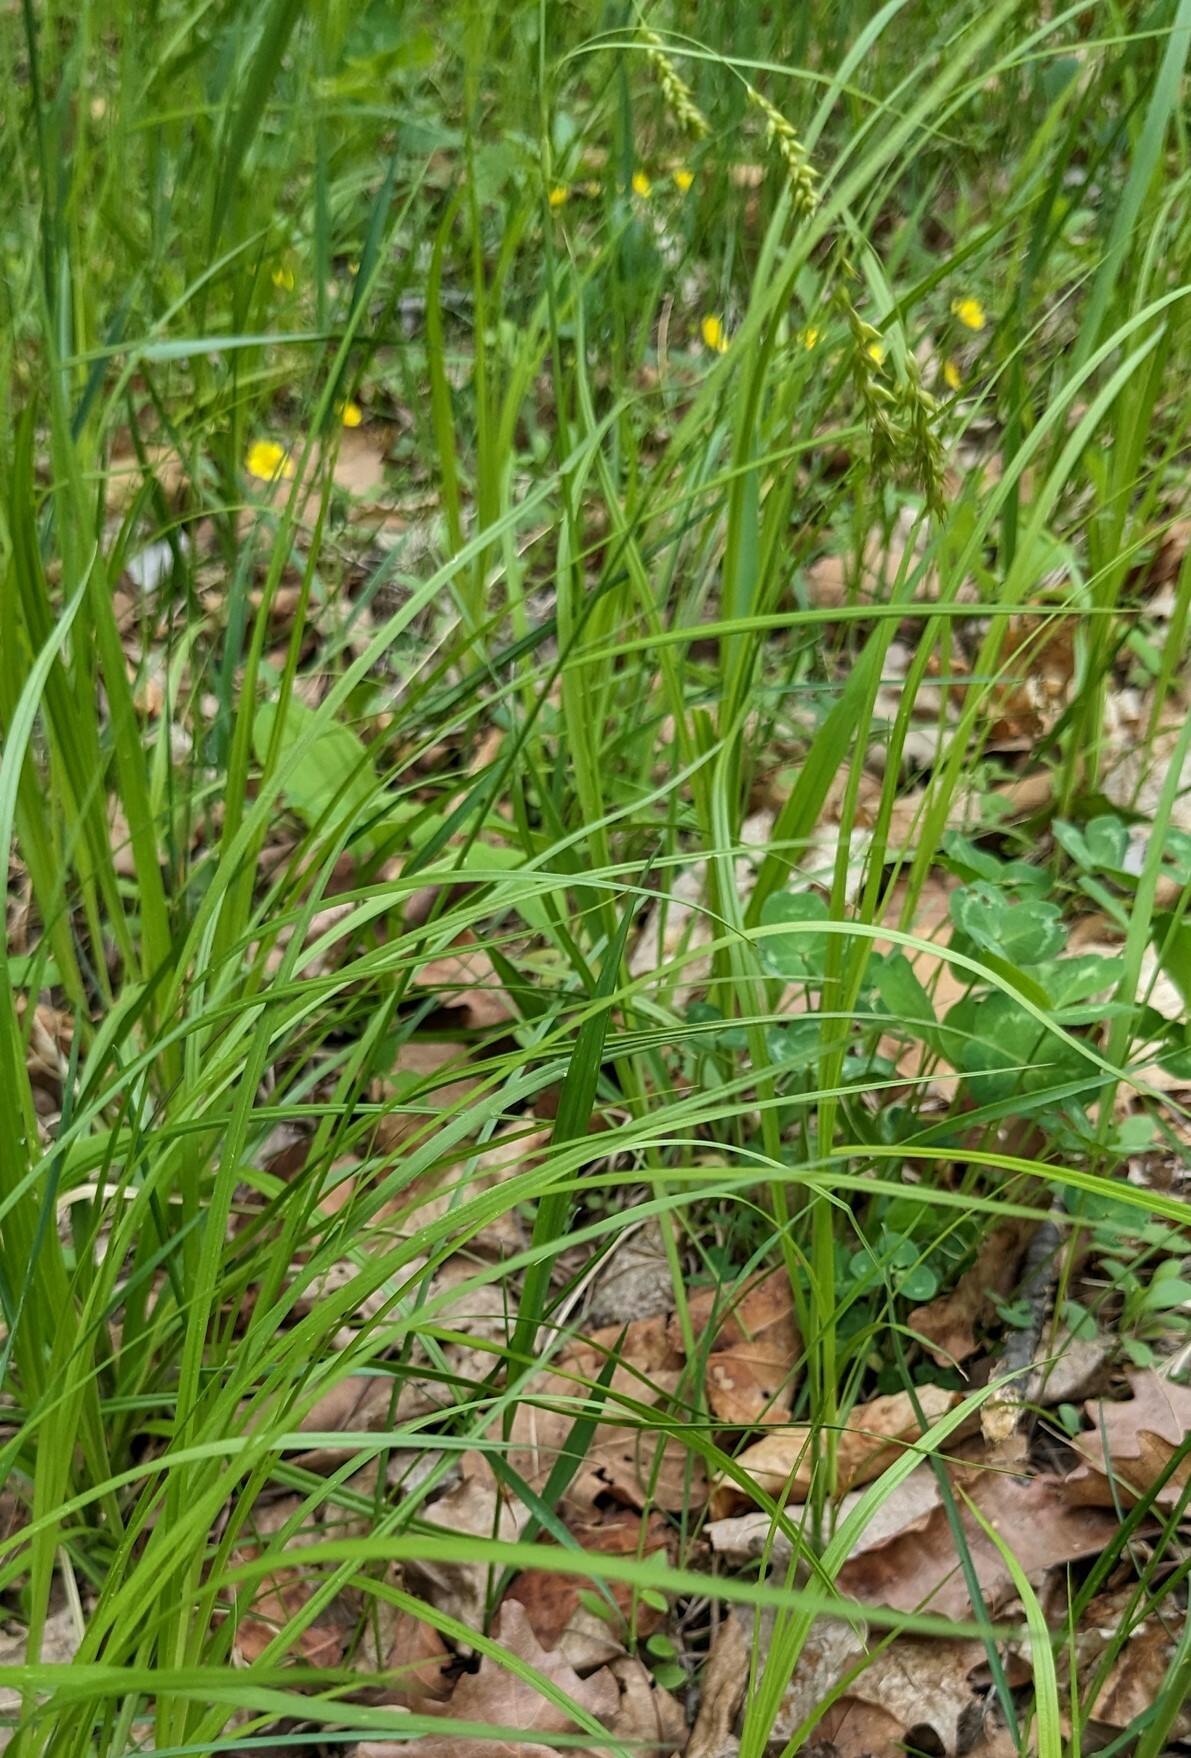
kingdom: Plantae
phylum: Tracheophyta
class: Liliopsida
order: Poales
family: Cyperaceae
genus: Carex
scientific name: Carex arnellii
